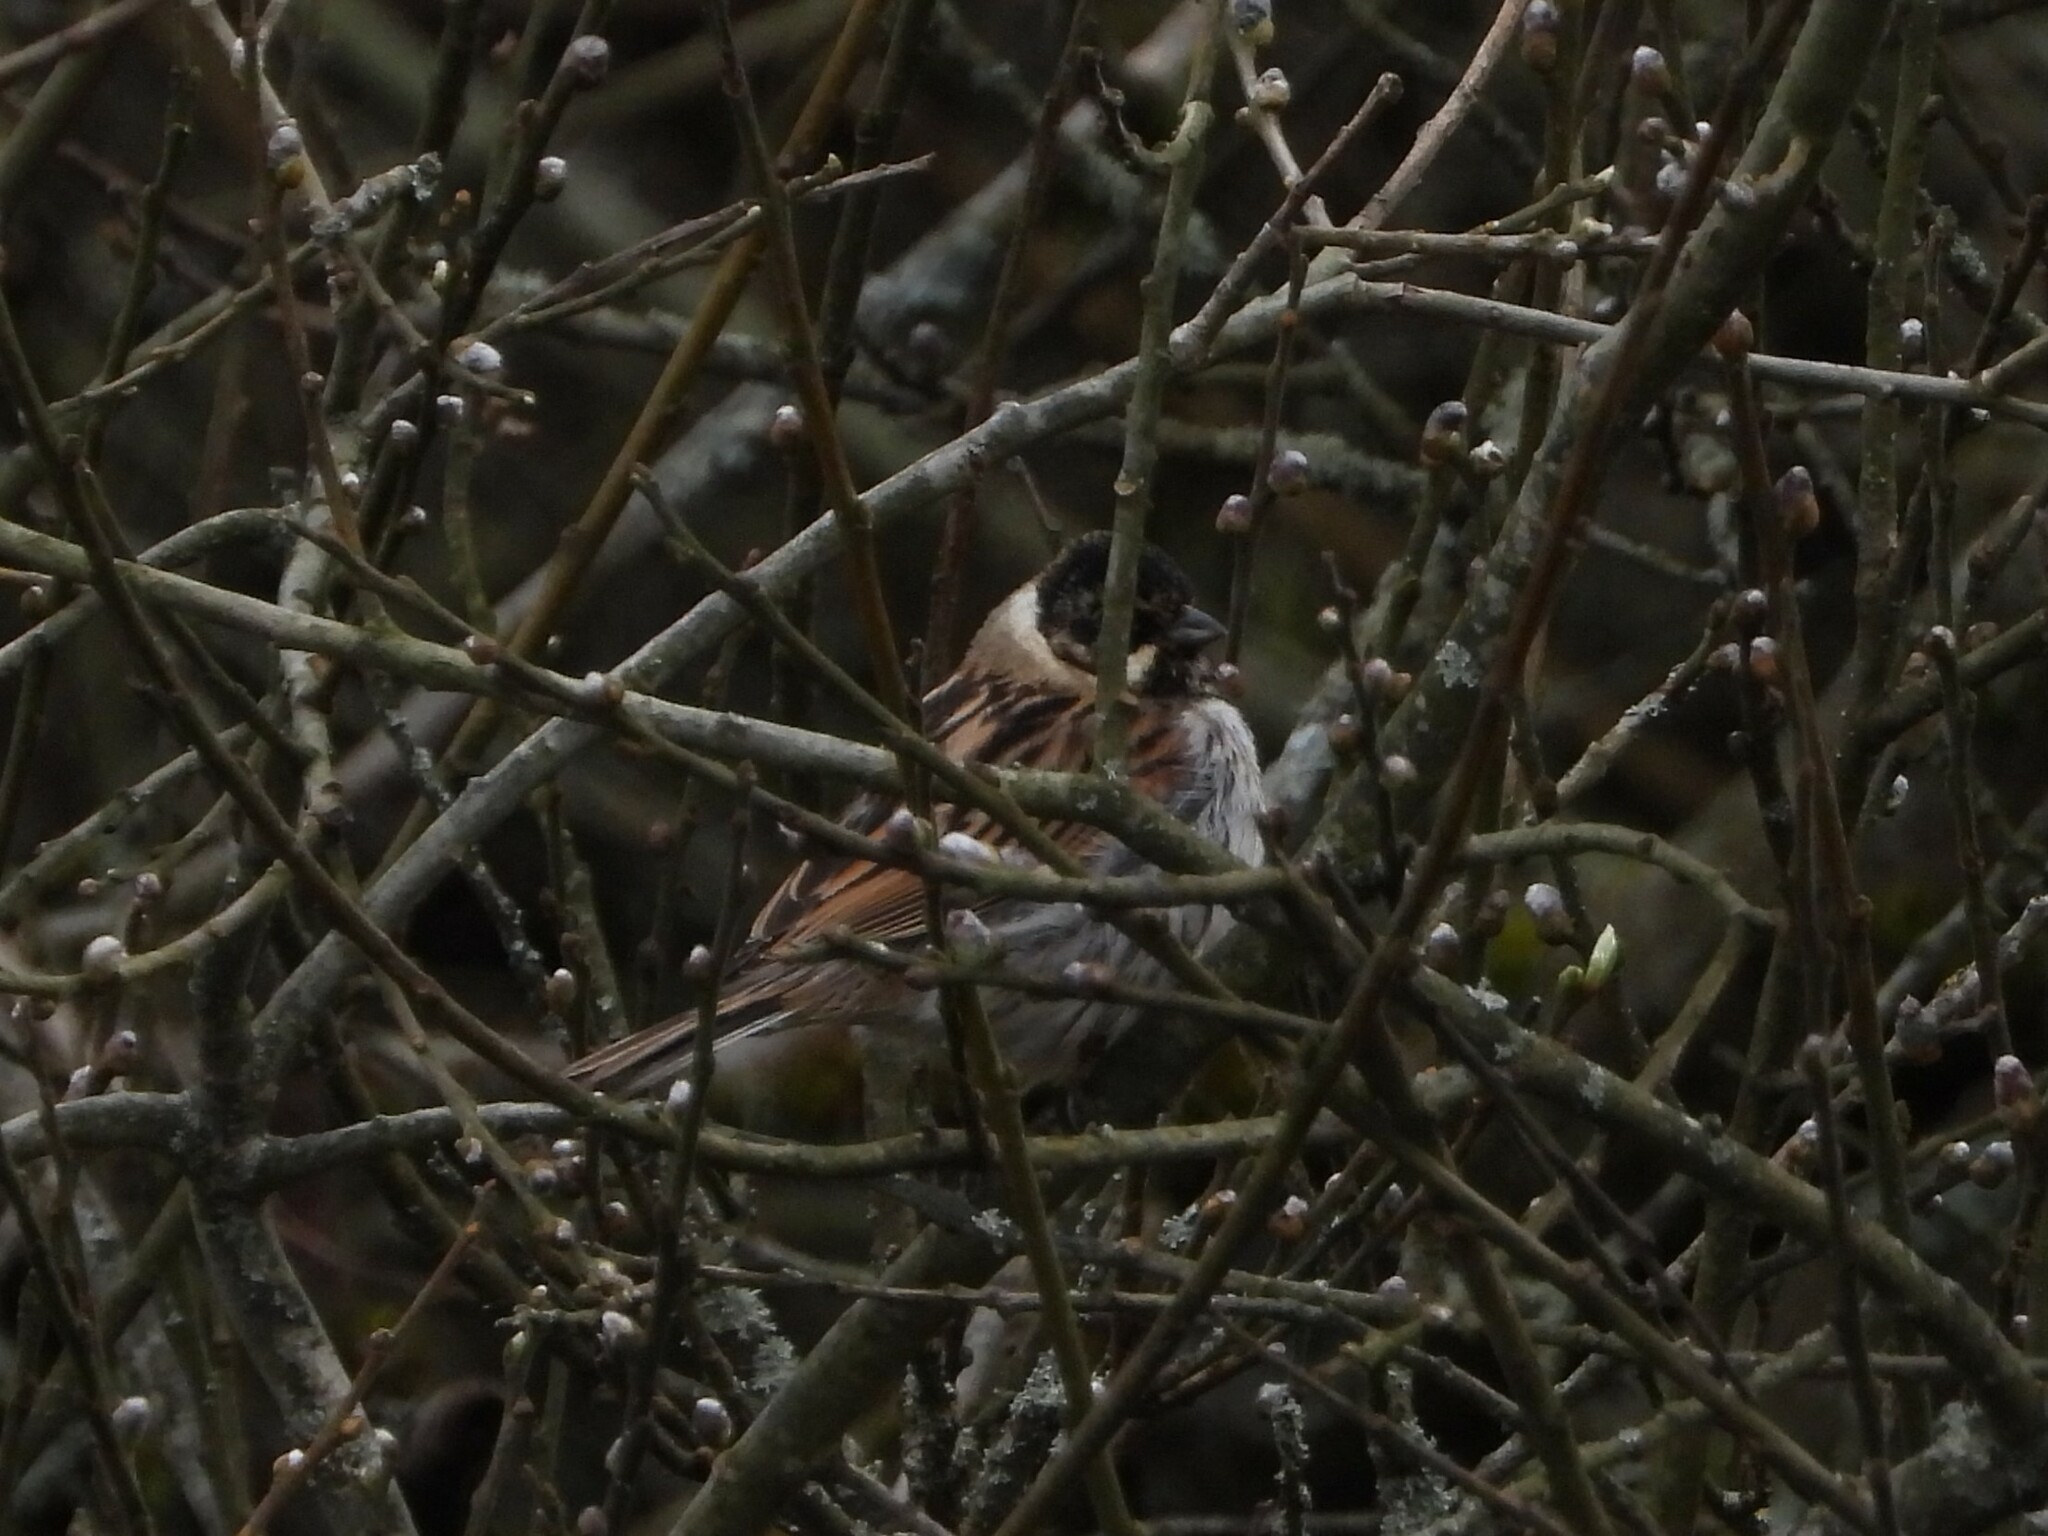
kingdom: Animalia
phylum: Chordata
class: Aves
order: Passeriformes
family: Emberizidae
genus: Emberiza
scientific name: Emberiza schoeniclus
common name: Reed bunting
